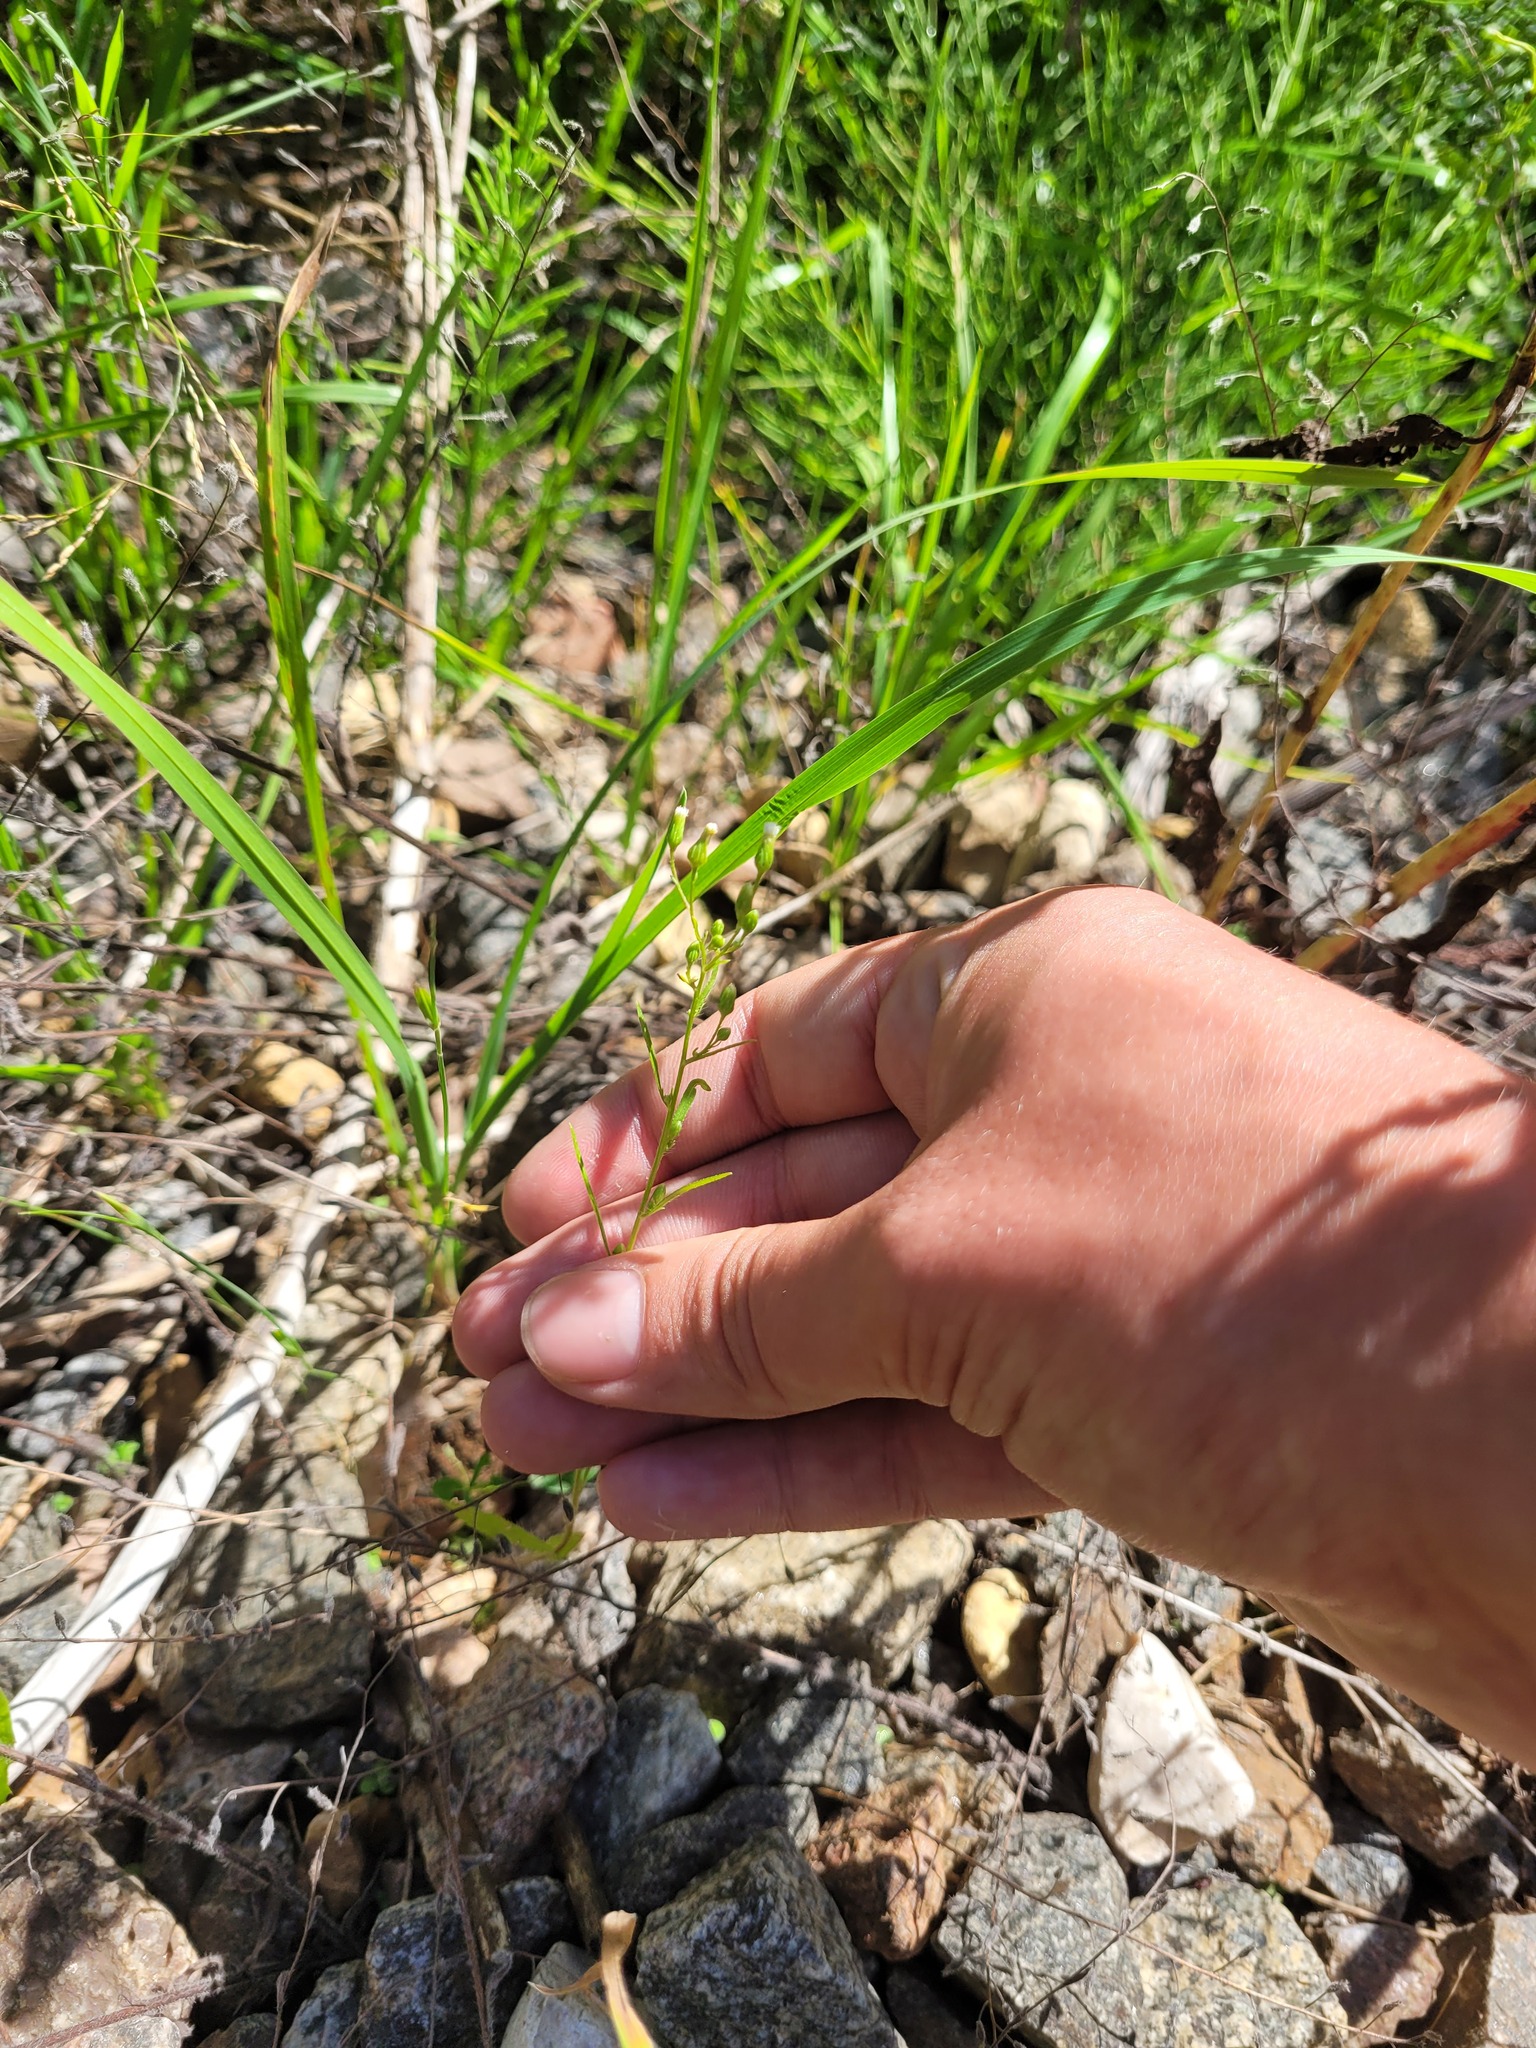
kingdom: Plantae
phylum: Tracheophyta
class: Magnoliopsida
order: Asterales
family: Asteraceae
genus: Erigeron
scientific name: Erigeron canadensis
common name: Canadian fleabane
